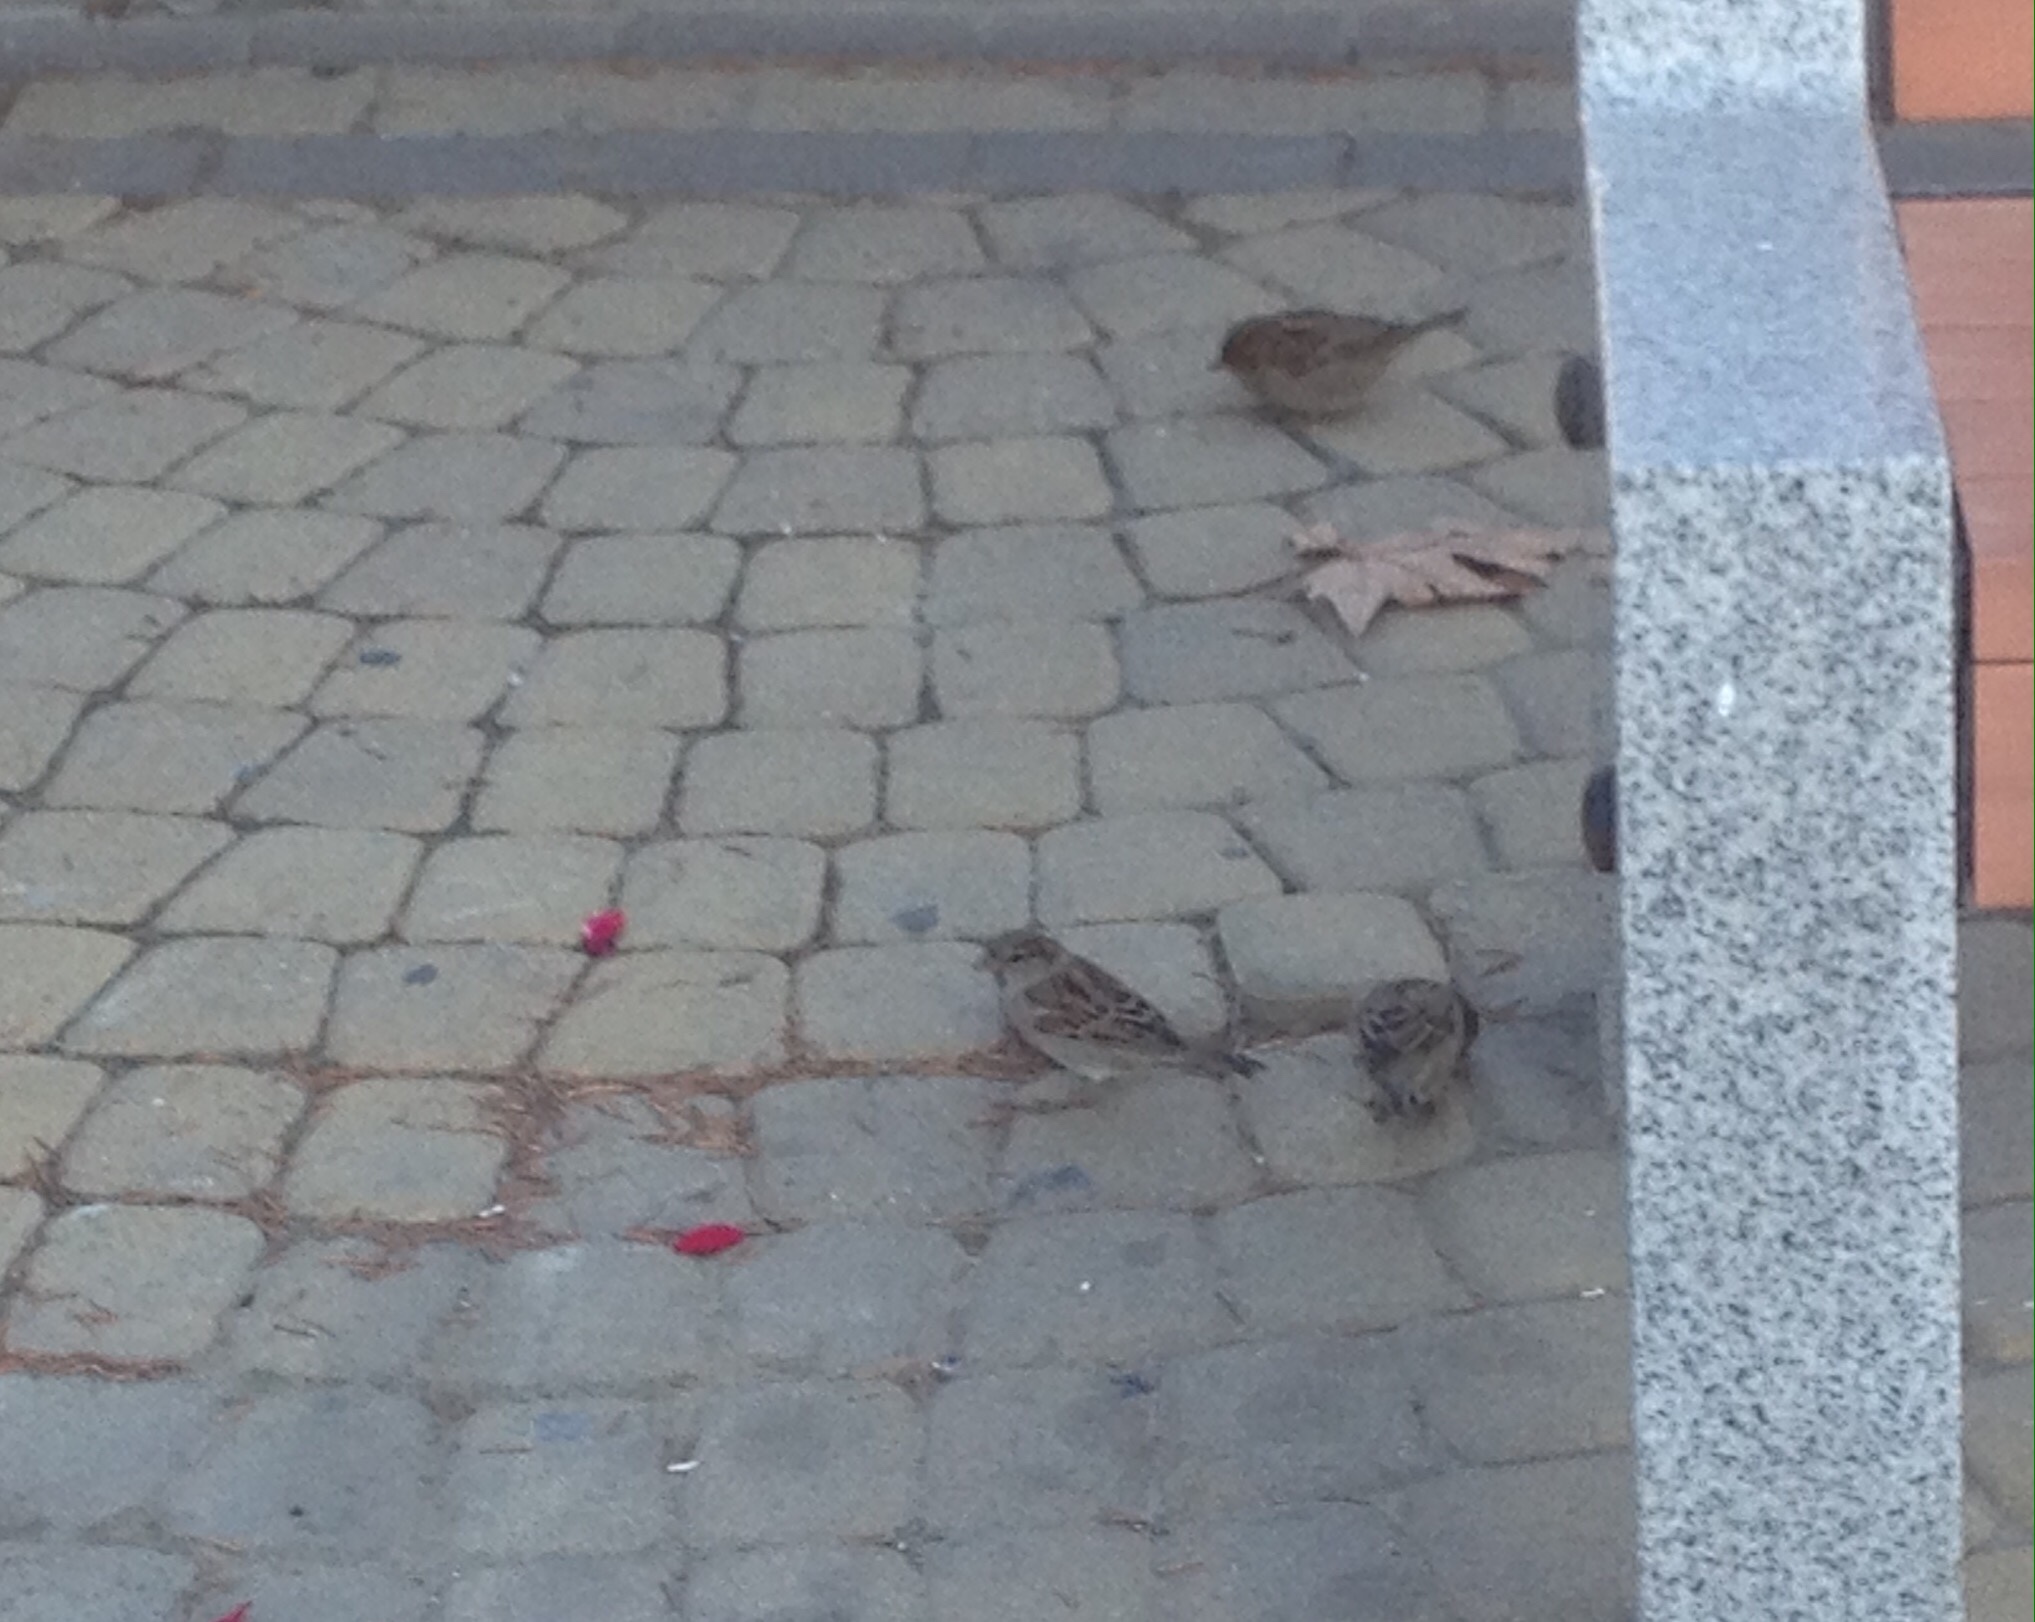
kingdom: Animalia
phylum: Chordata
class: Aves
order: Passeriformes
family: Passeridae
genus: Passer
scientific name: Passer domesticus
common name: House sparrow
